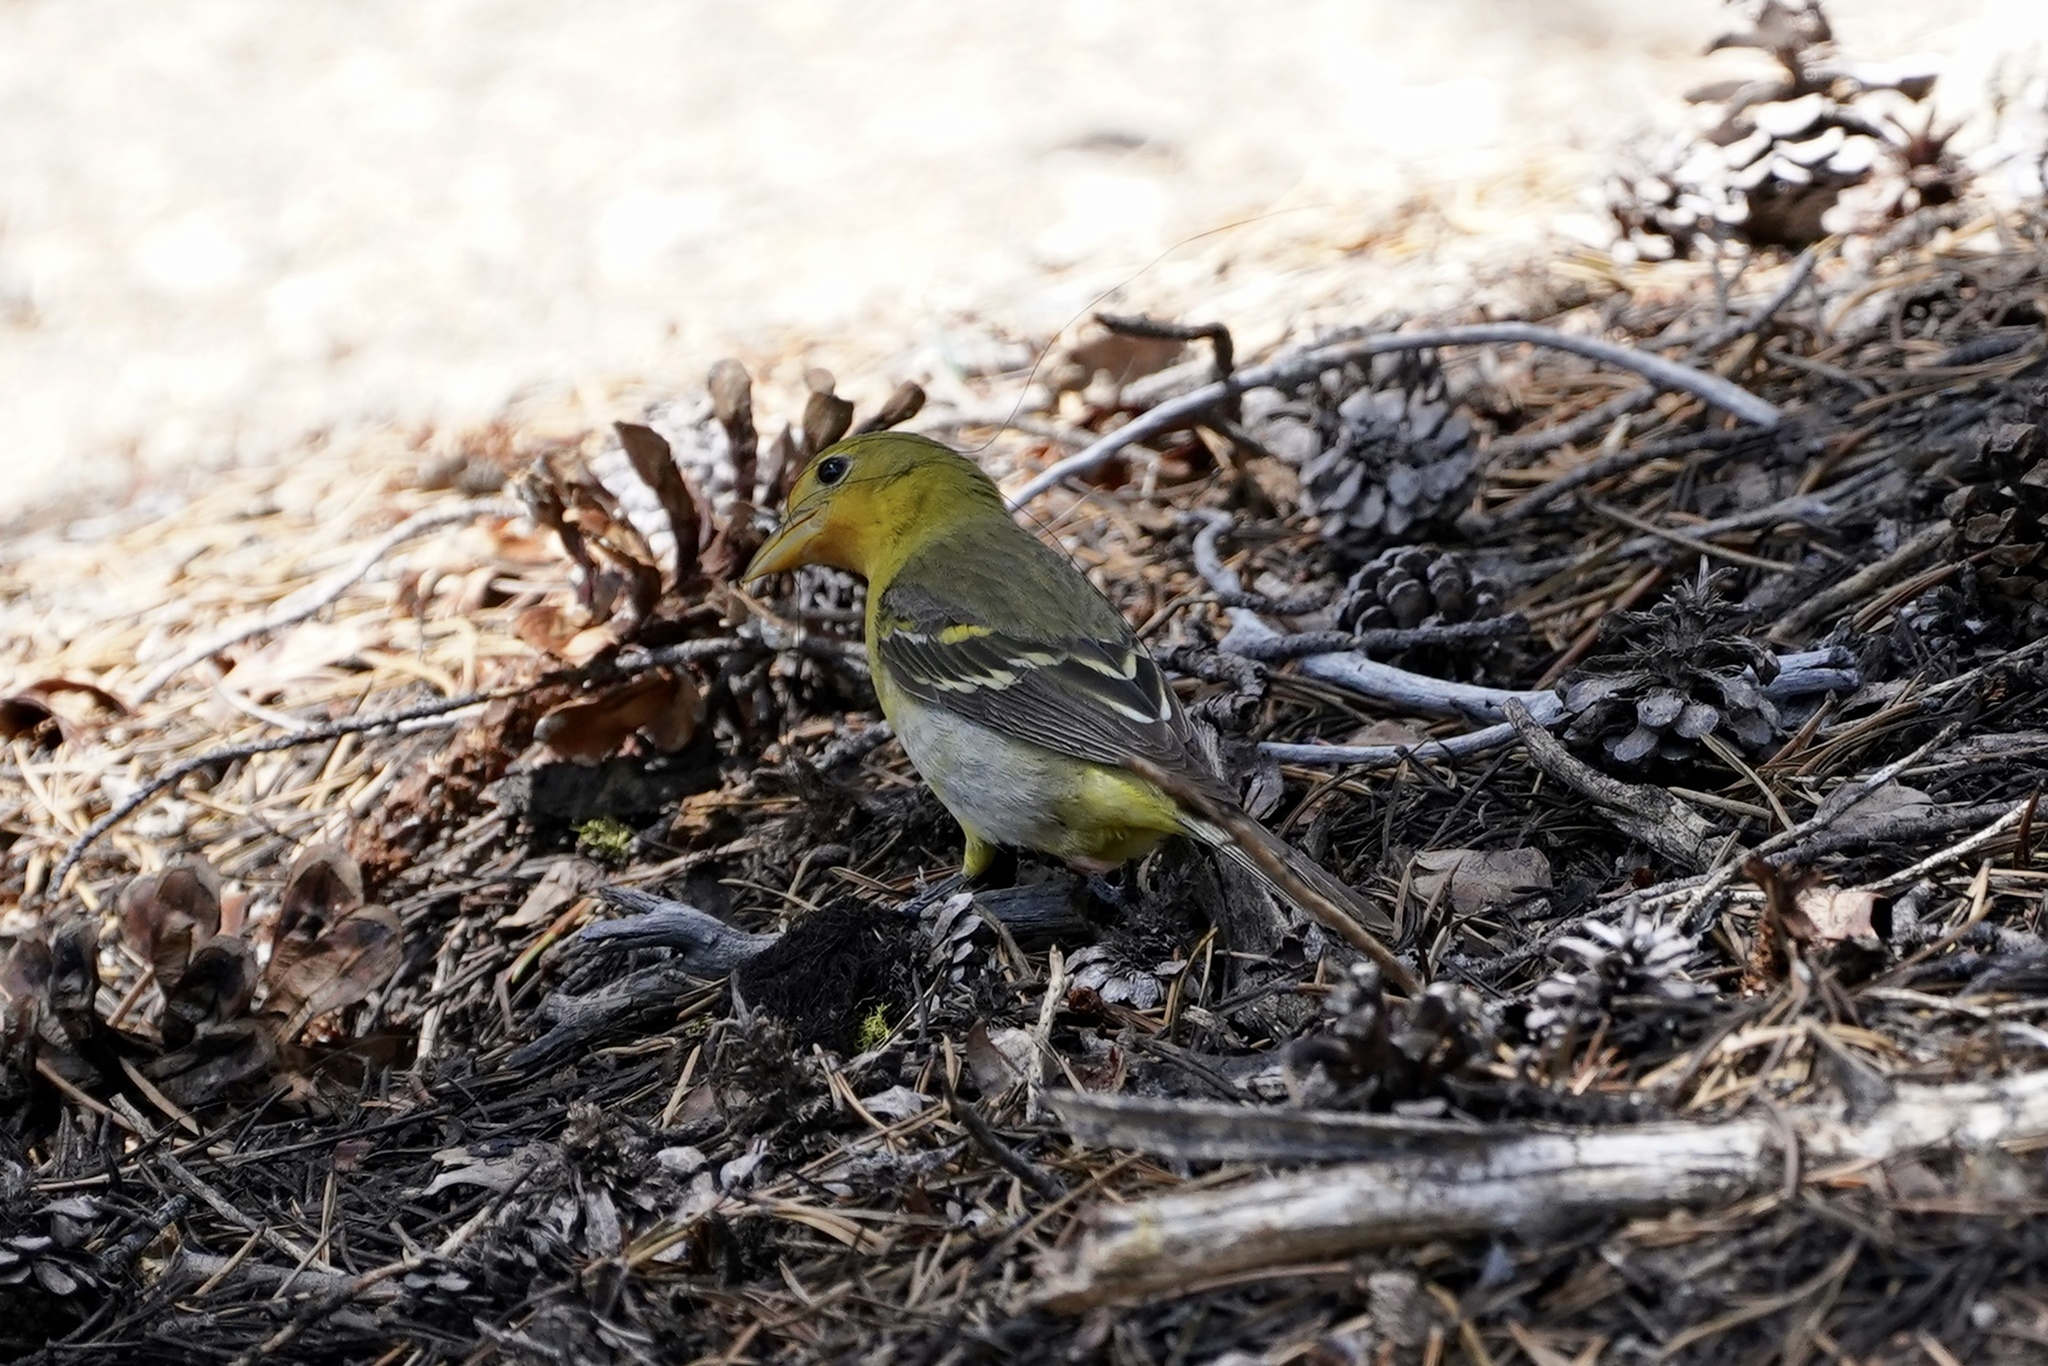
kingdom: Animalia
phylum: Chordata
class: Aves
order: Passeriformes
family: Cardinalidae
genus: Piranga
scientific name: Piranga ludoviciana
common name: Western tanager
